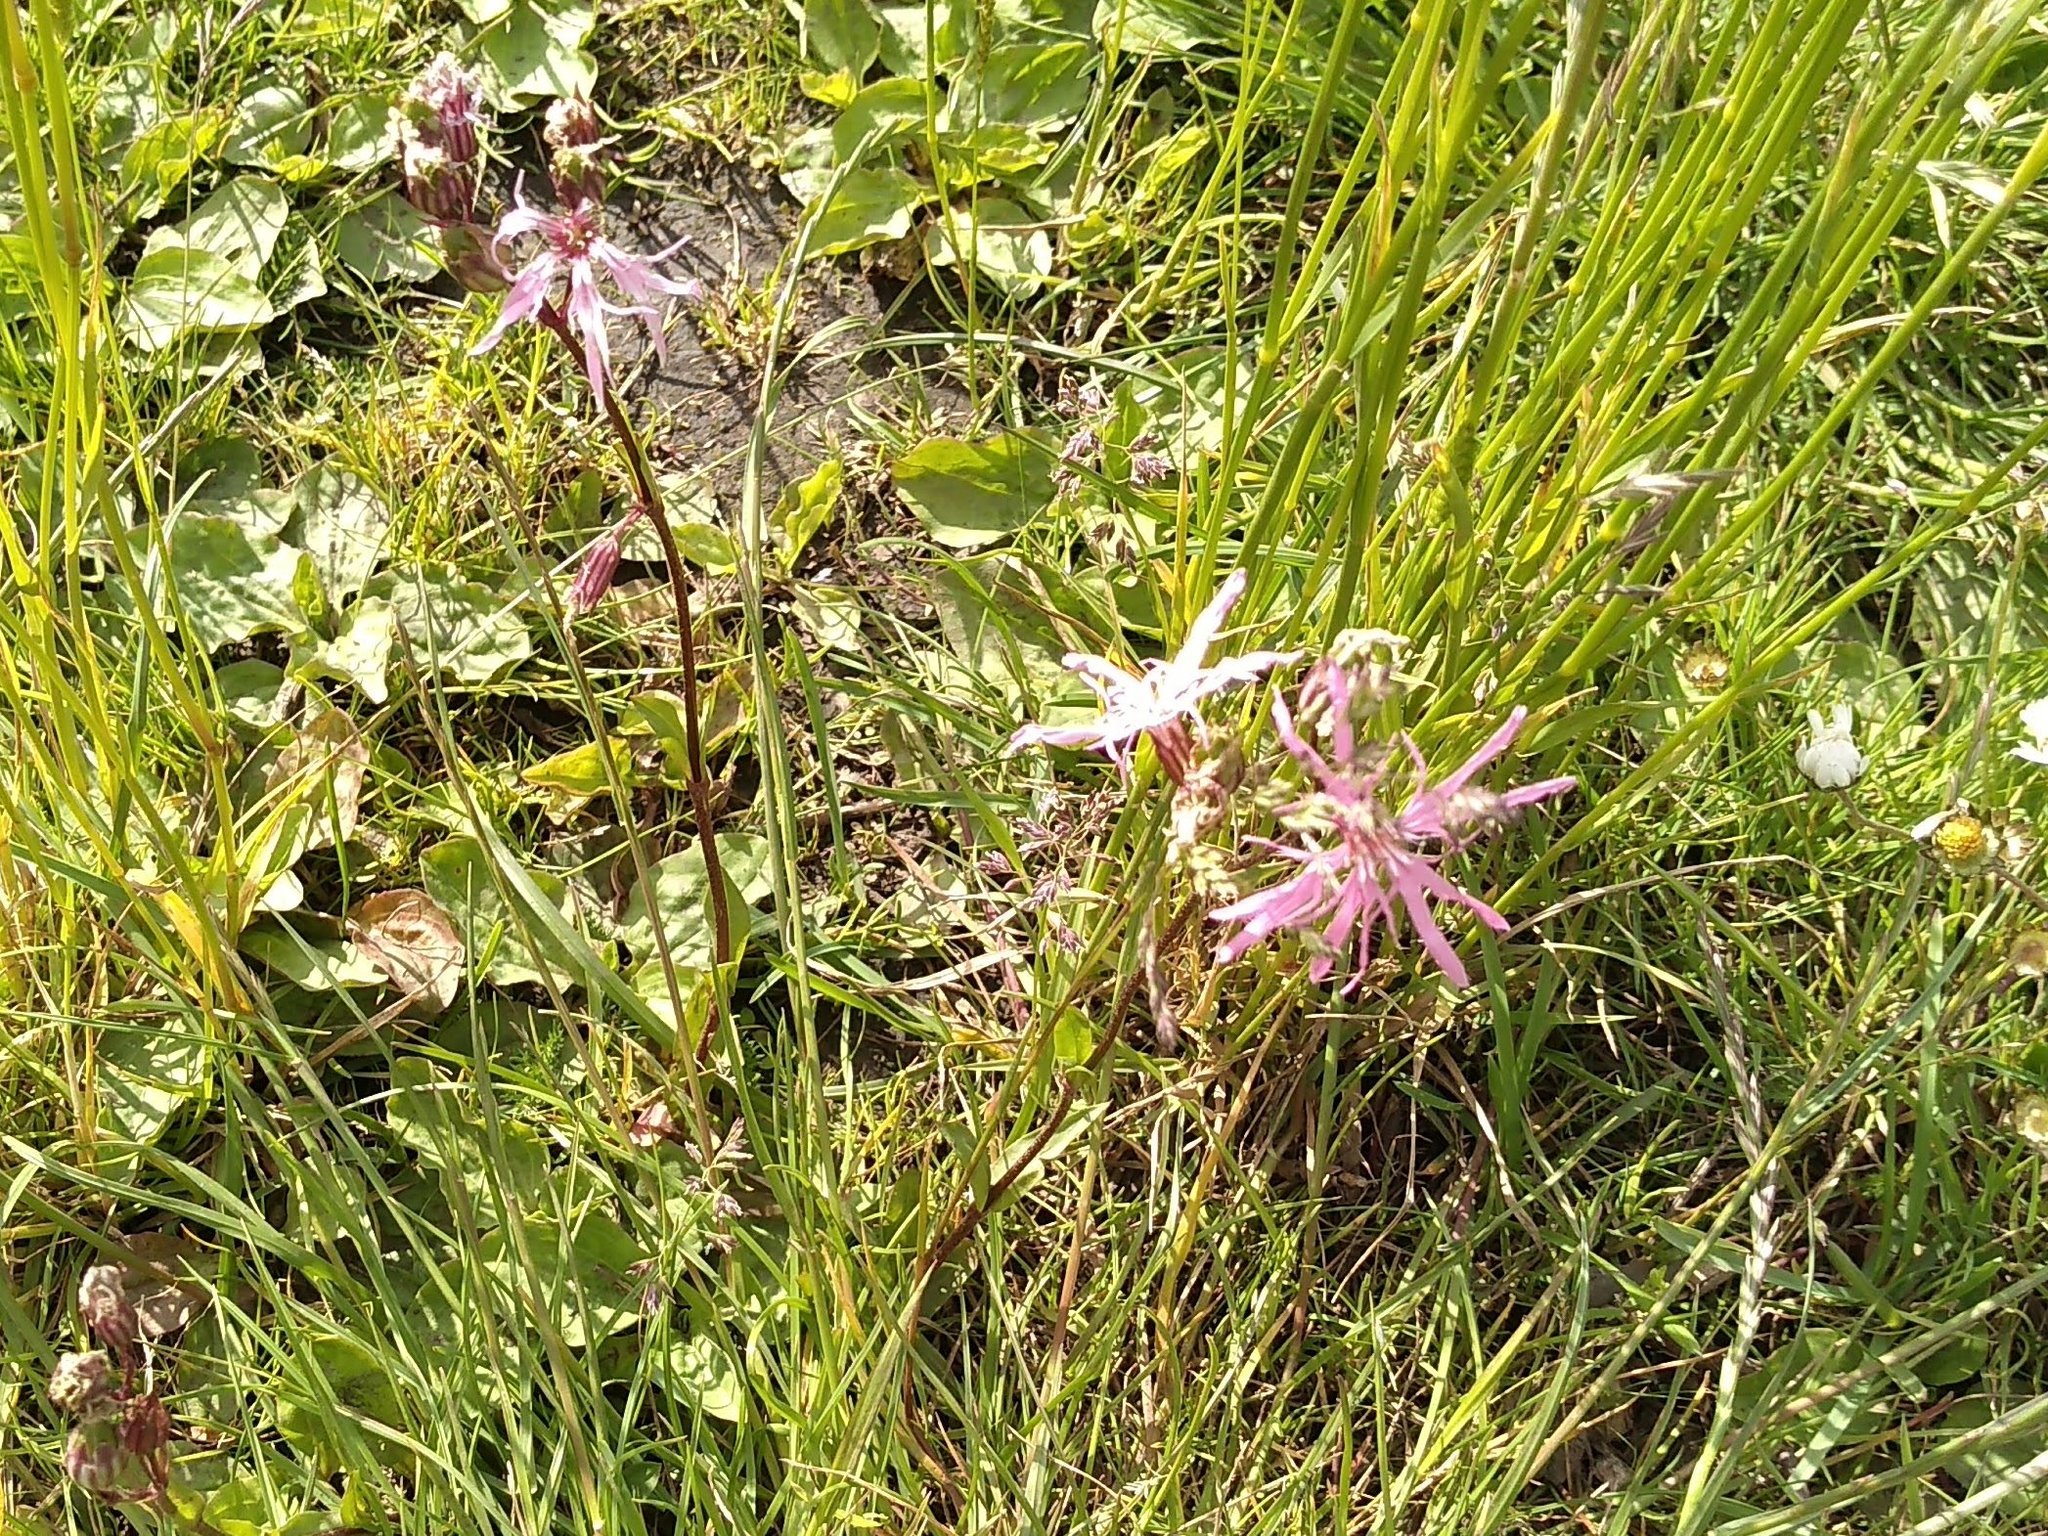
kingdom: Plantae
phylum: Tracheophyta
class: Magnoliopsida
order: Caryophyllales
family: Caryophyllaceae
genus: Silene
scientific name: Silene flos-cuculi
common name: Ragged-robin
